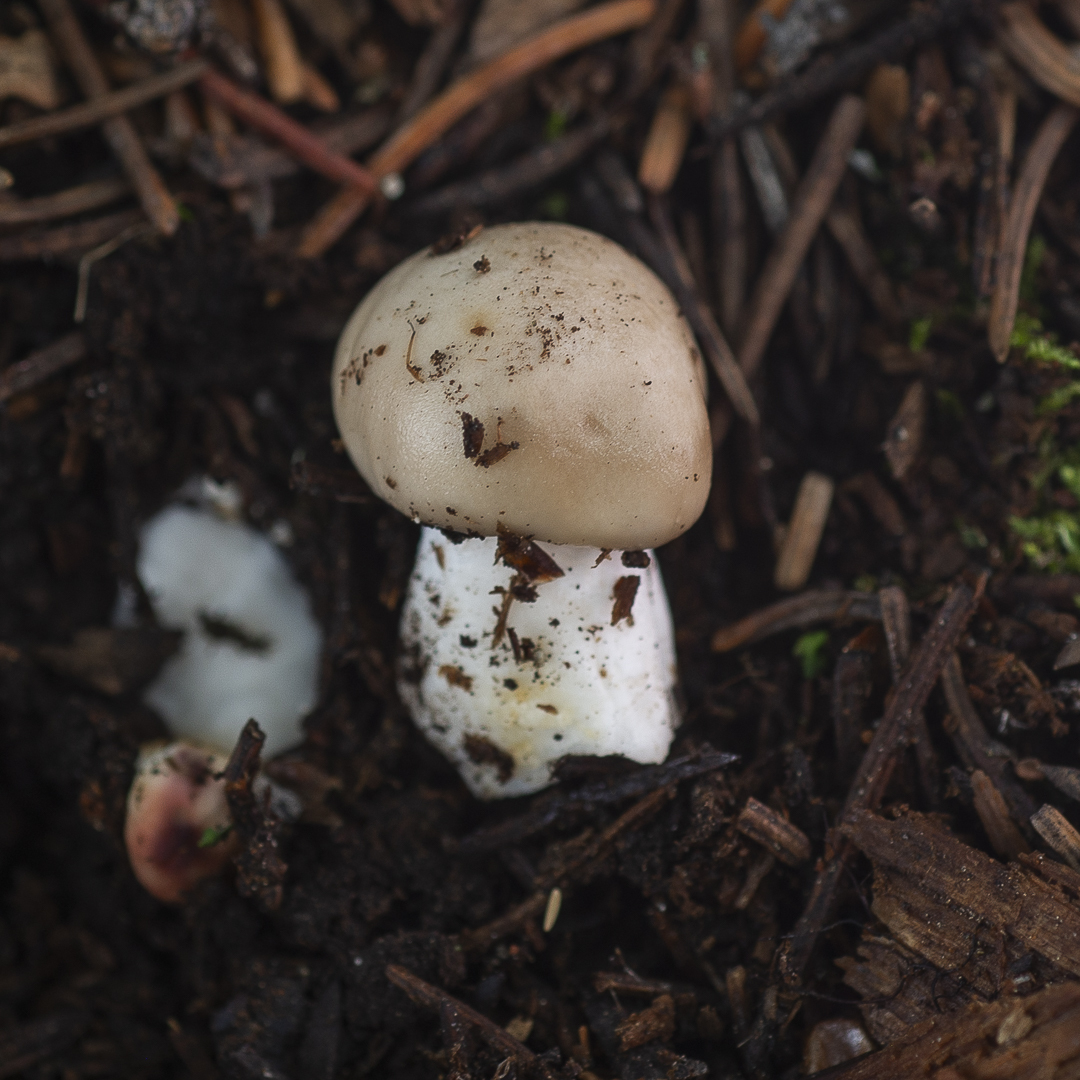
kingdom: Fungi
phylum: Basidiomycota
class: Agaricomycetes
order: Agaricales
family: Hygrophoraceae
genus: Hygrophorus
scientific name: Hygrophorus pudorinus
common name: Rosy woodwax
